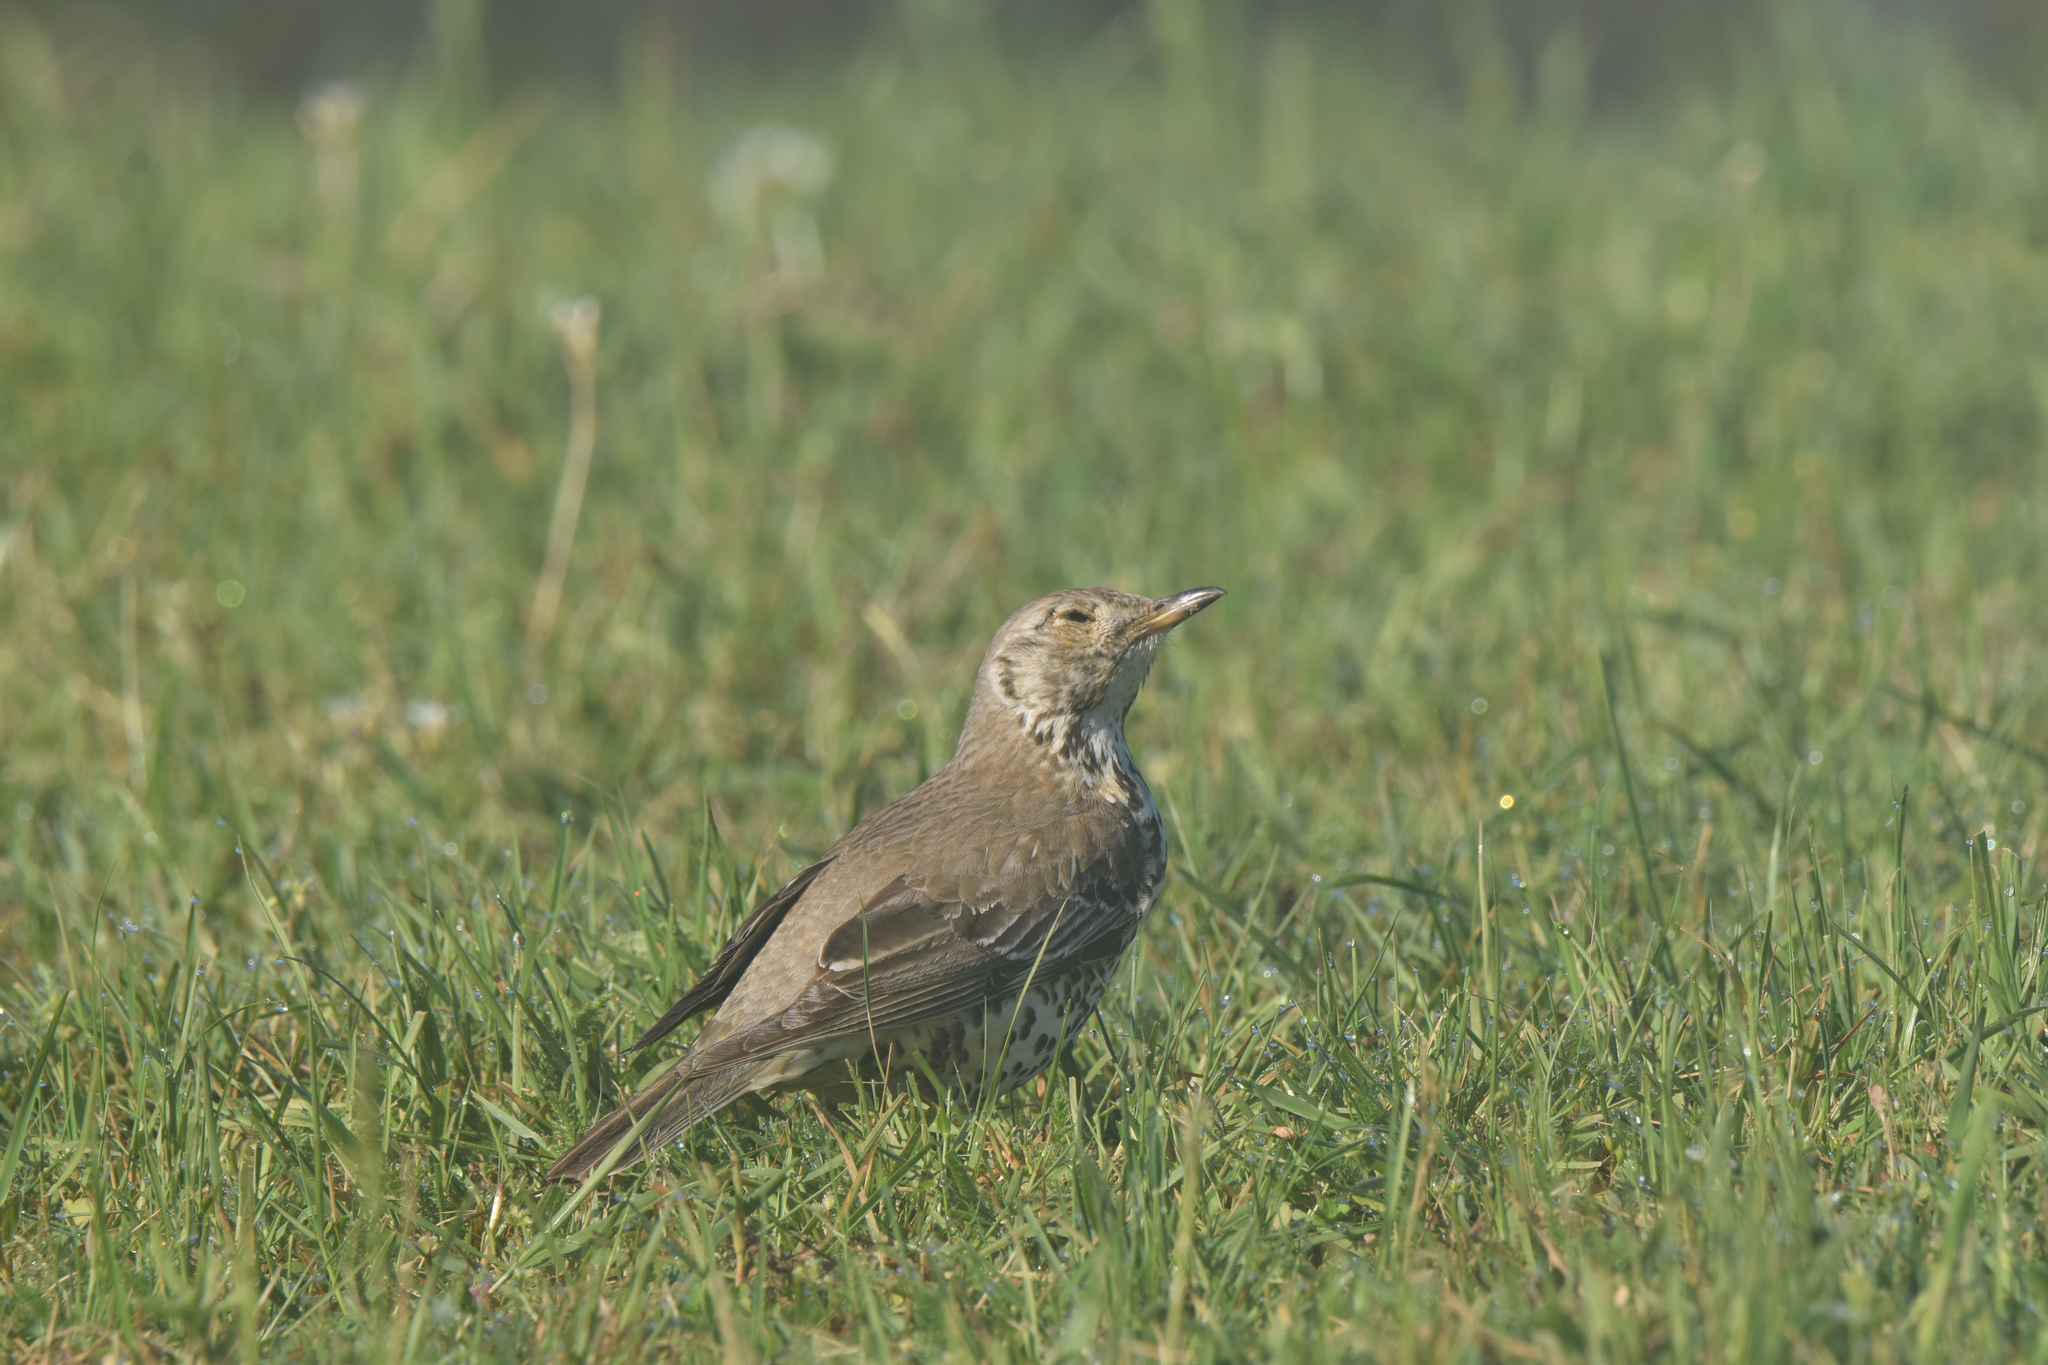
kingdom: Animalia
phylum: Chordata
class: Aves
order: Passeriformes
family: Turdidae
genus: Turdus
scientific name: Turdus viscivorus
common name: Mistle thrush
